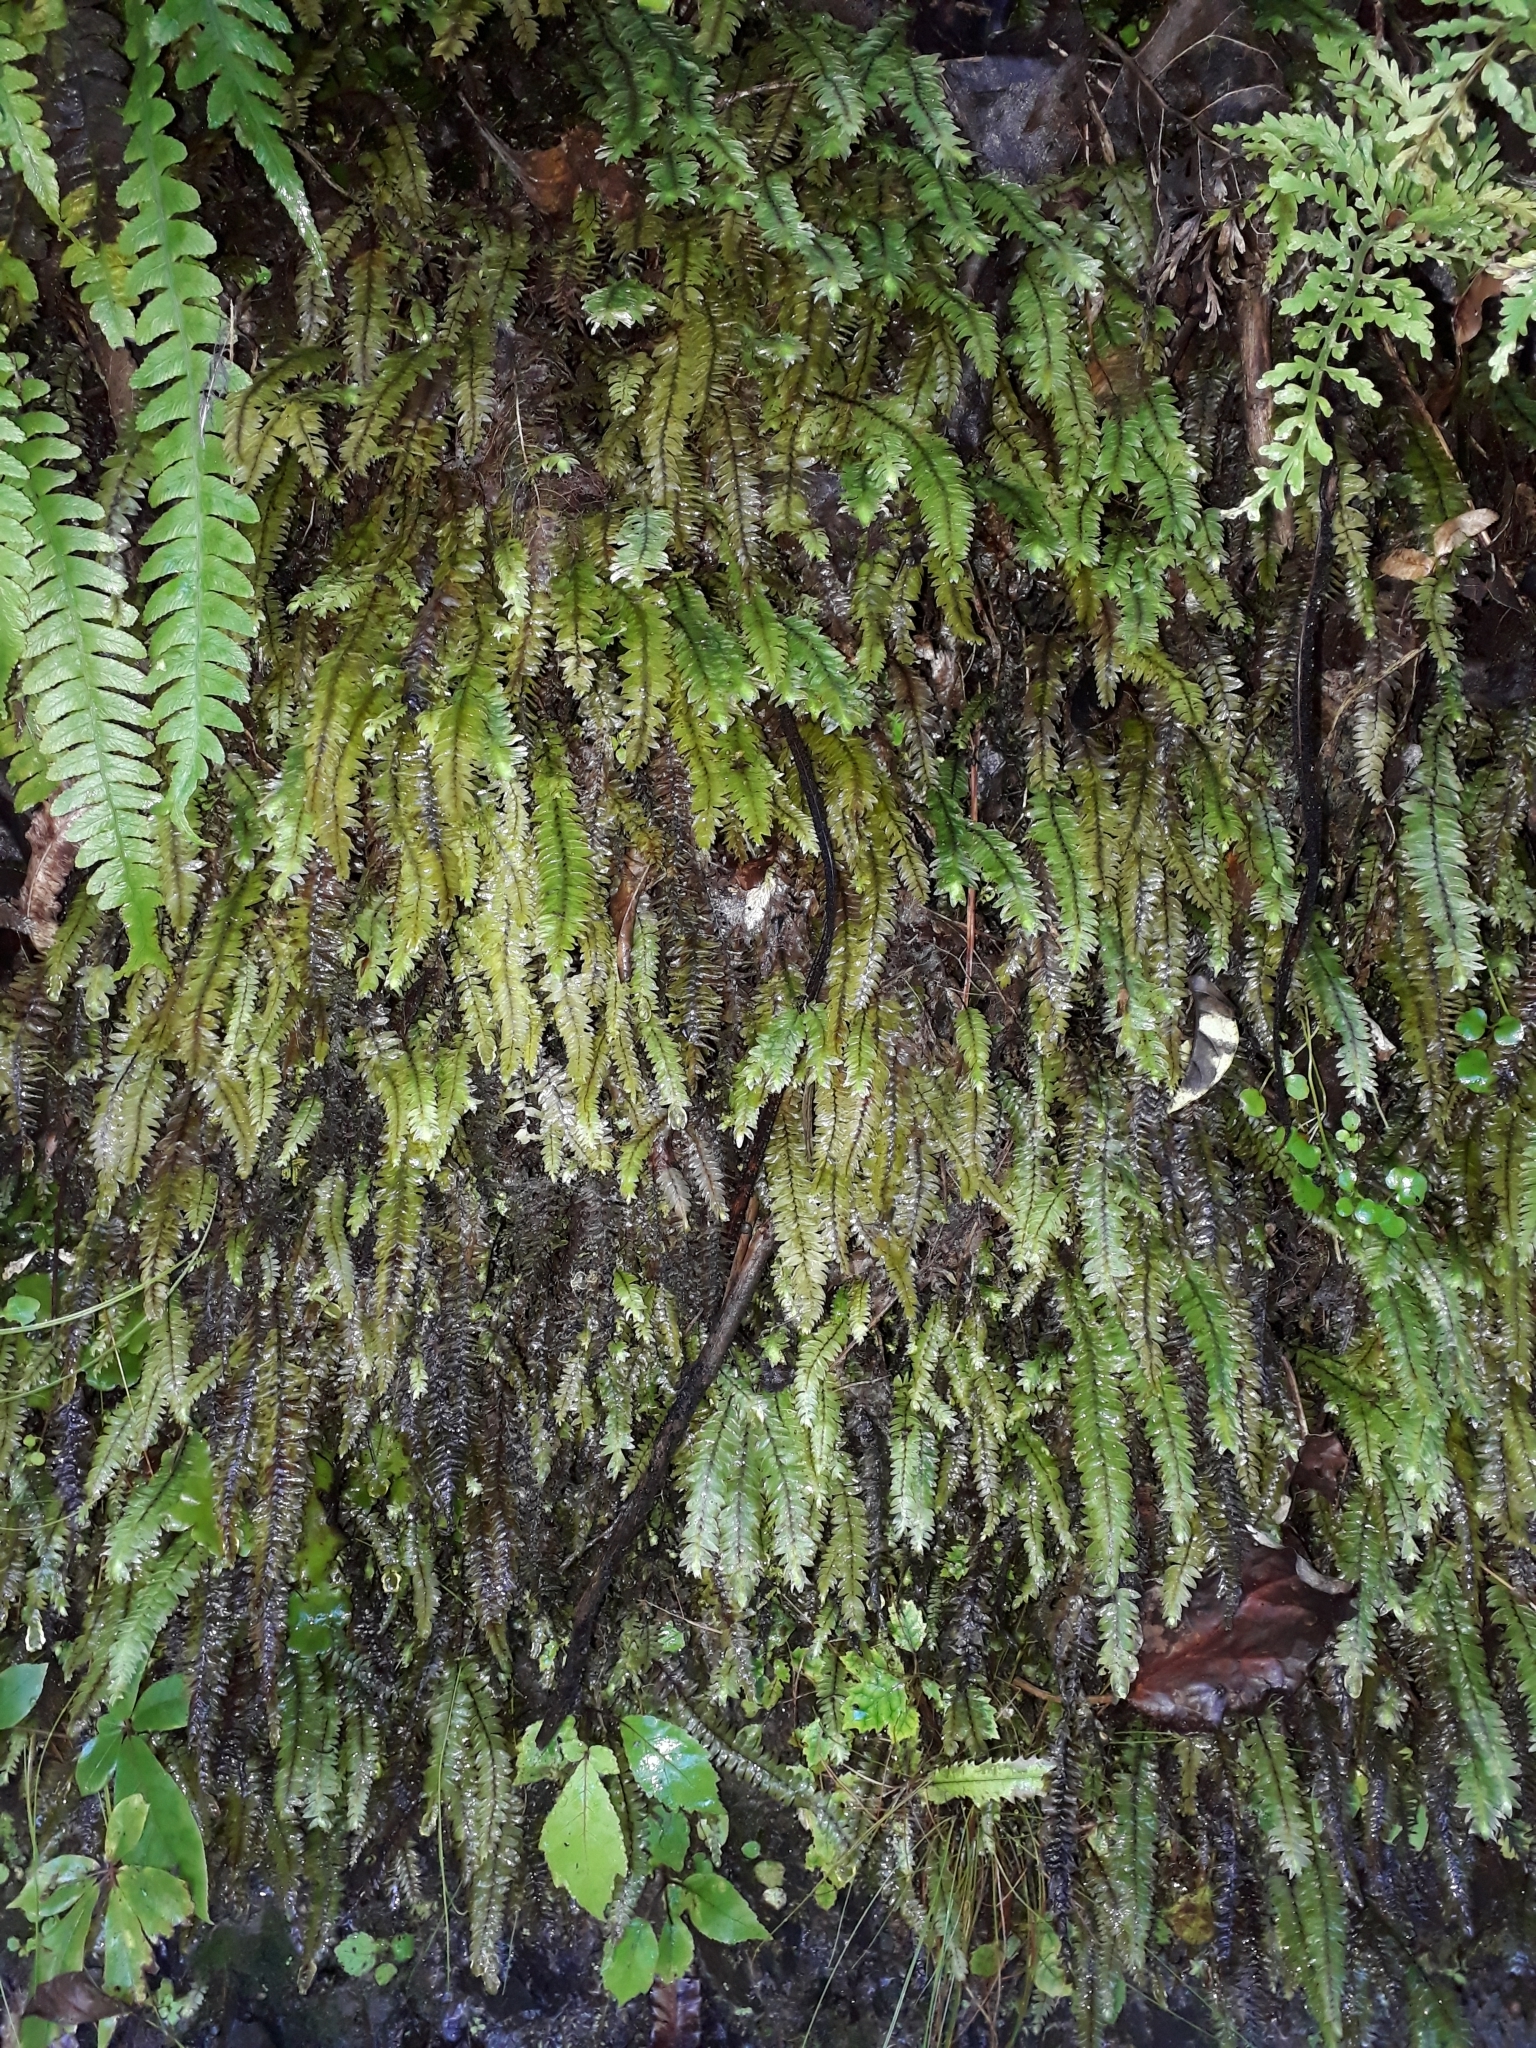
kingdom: Plantae
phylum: Bryophyta
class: Bryopsida
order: Hypopterygiales
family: Hypopterygiaceae
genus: Cyathophorum
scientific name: Cyathophorum bulbosum
